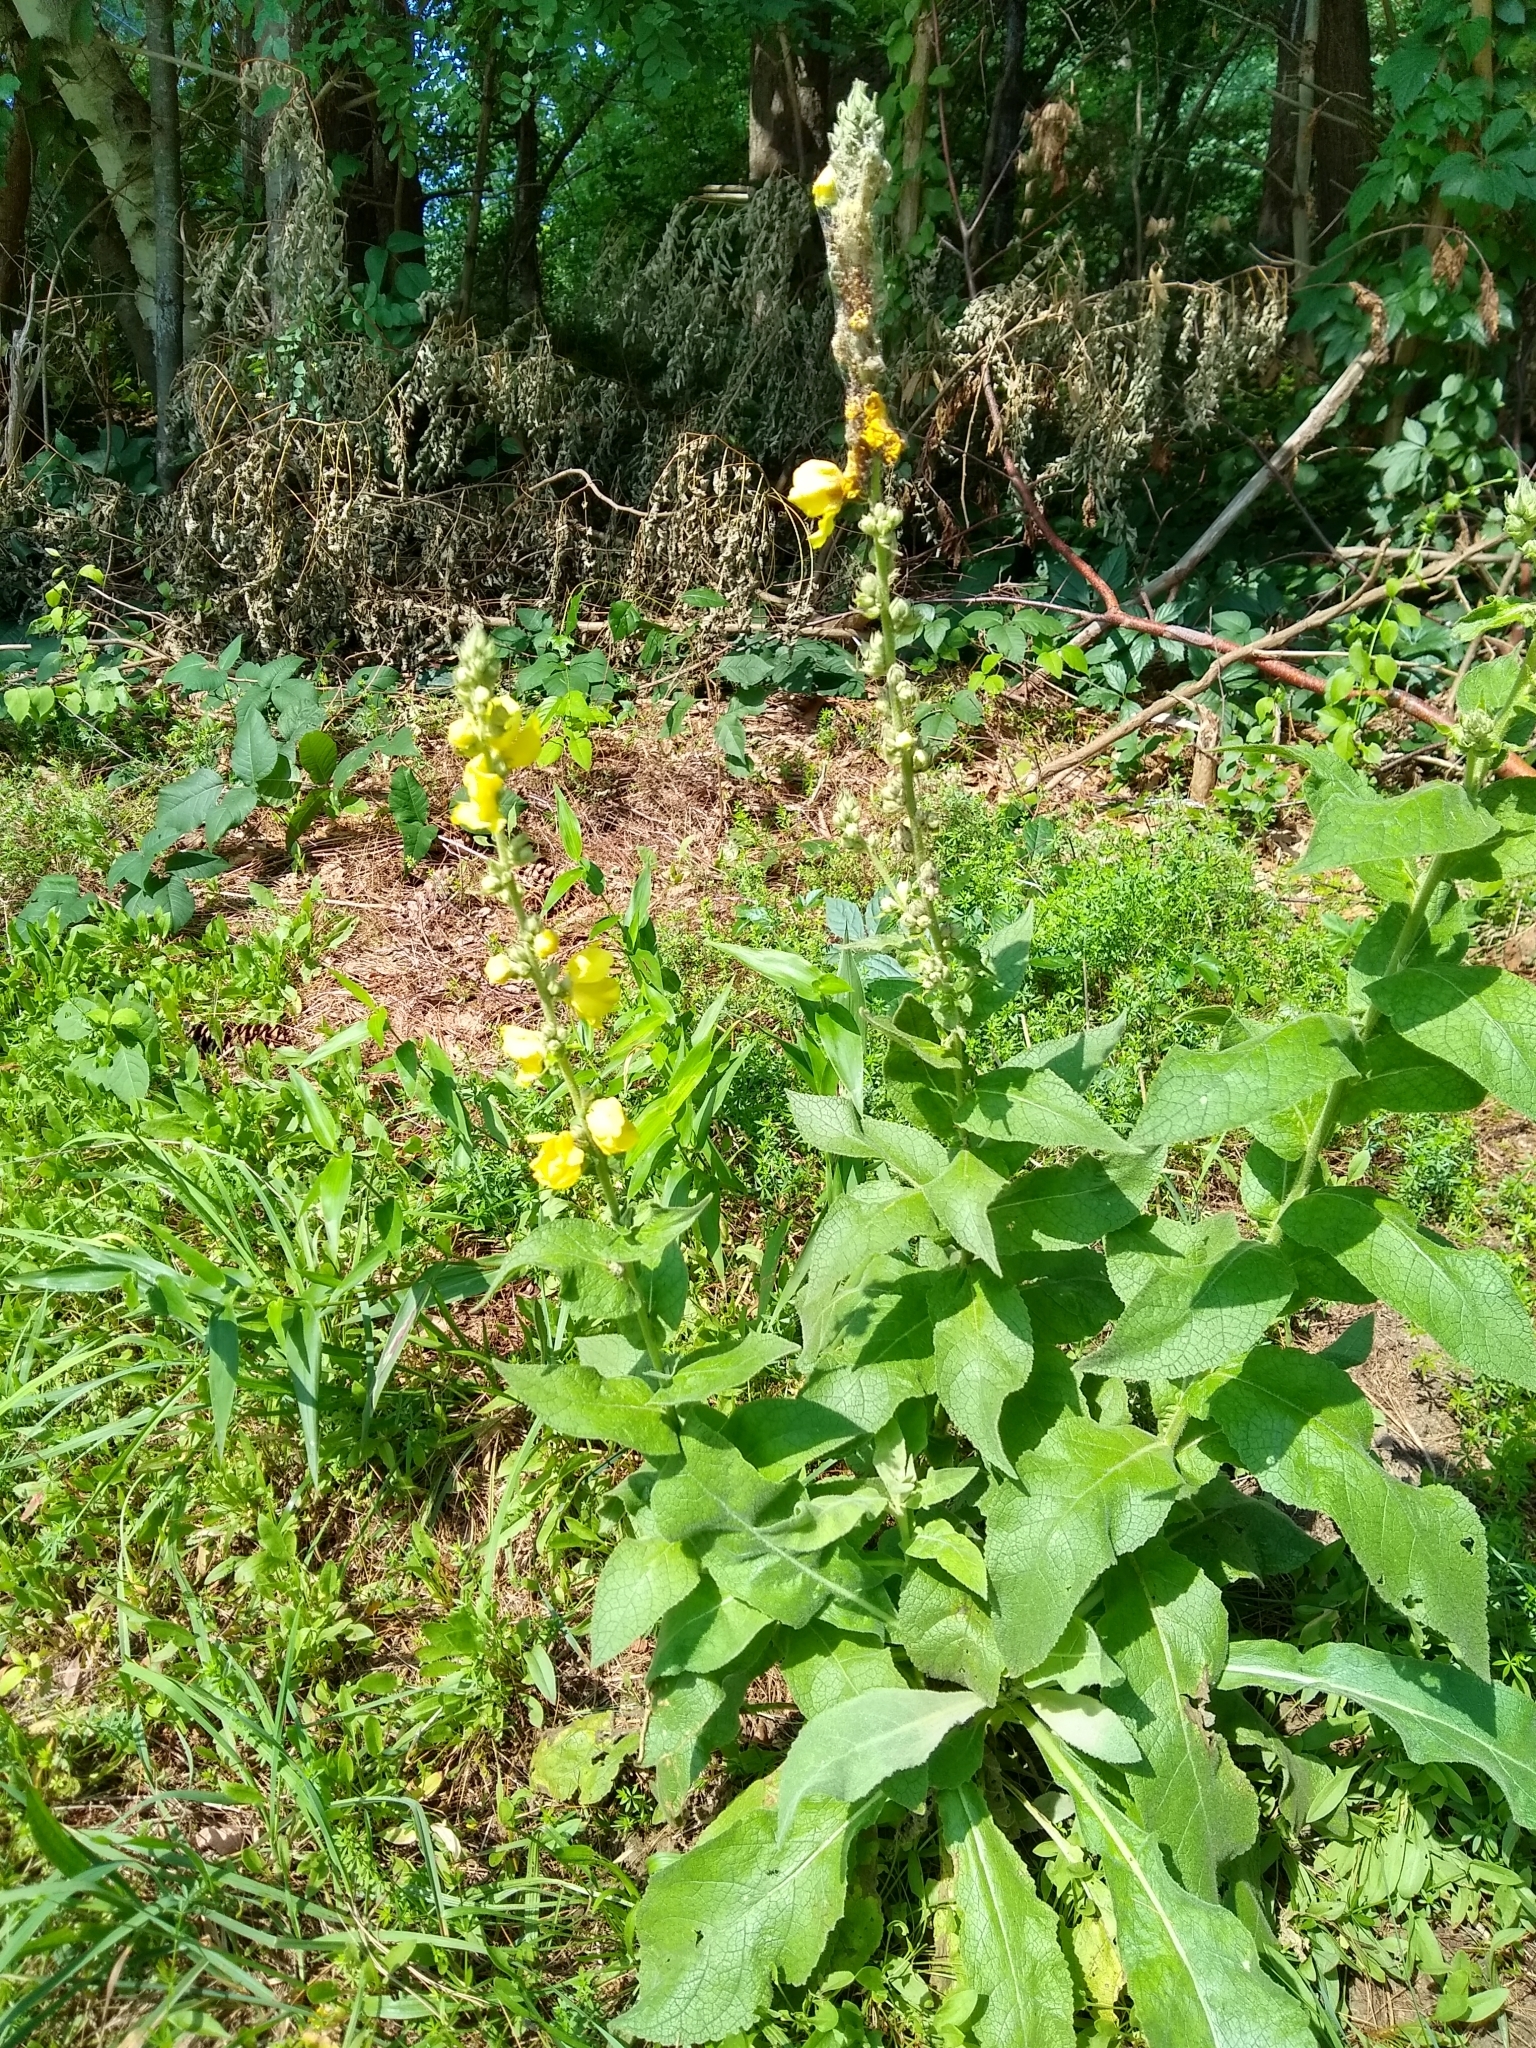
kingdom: Plantae
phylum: Tracheophyta
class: Magnoliopsida
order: Lamiales
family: Scrophulariaceae
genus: Verbascum
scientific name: Verbascum phlomoides
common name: Orange mullein
